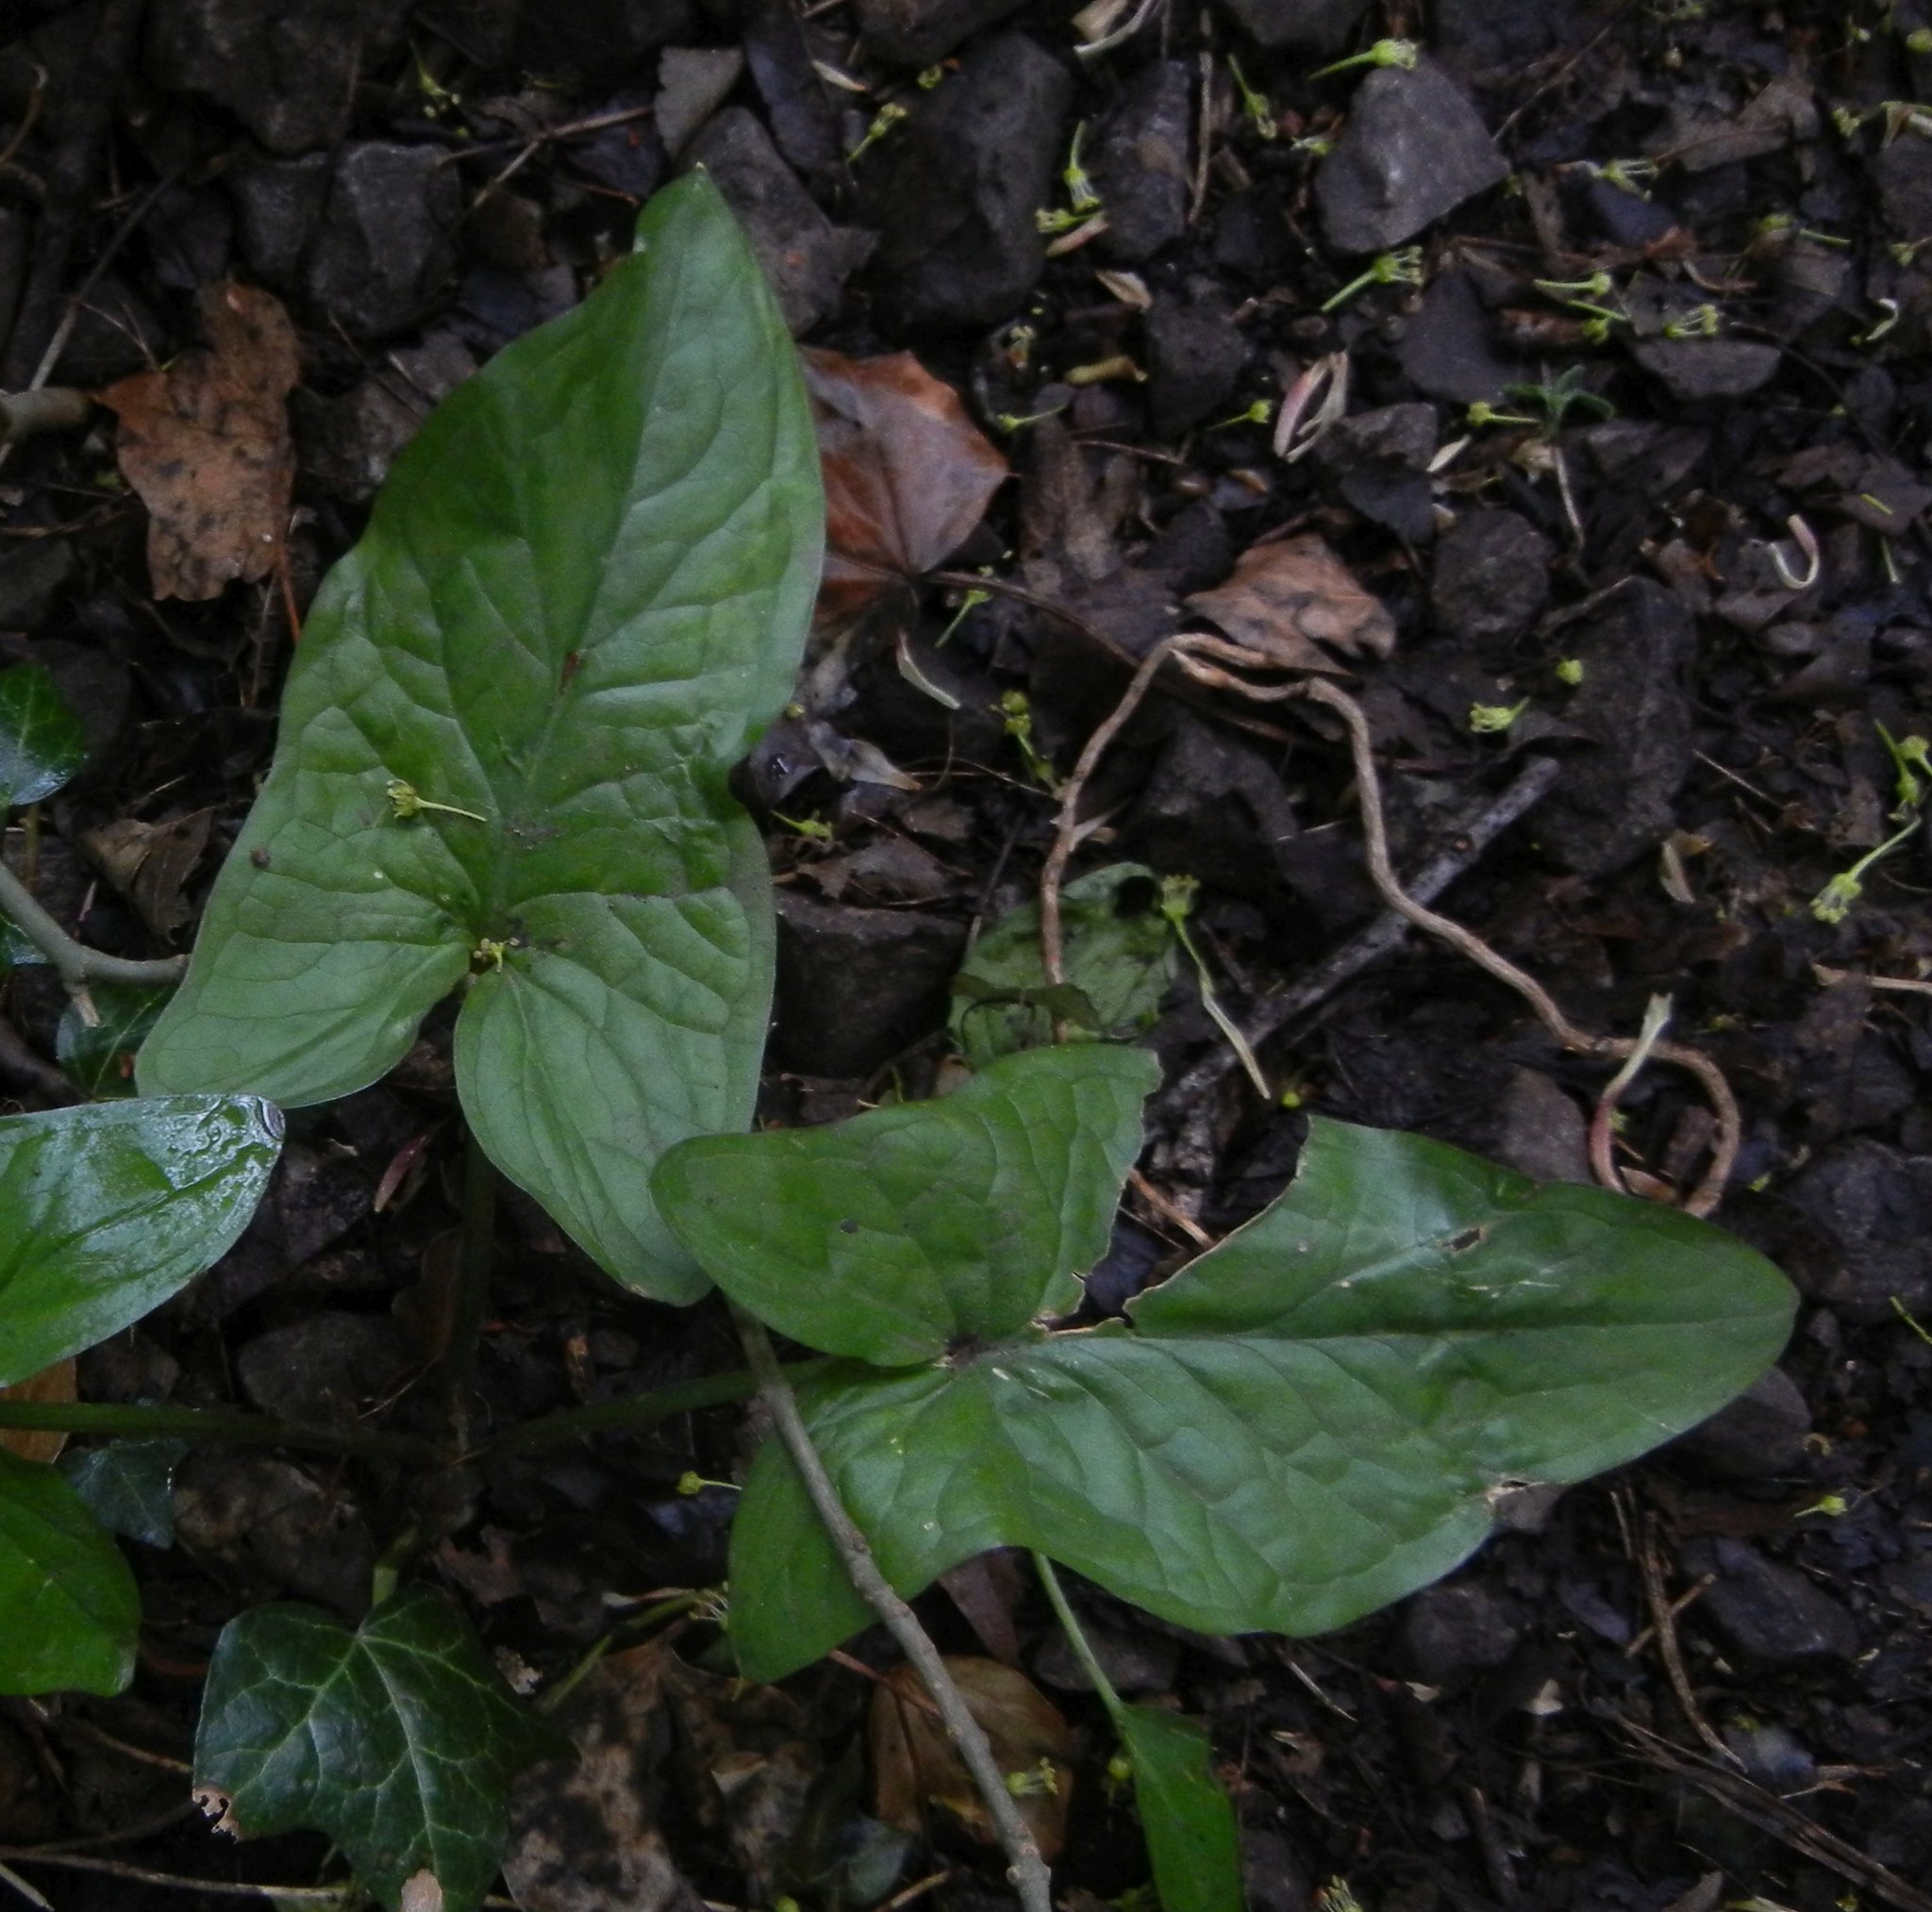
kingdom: Plantae
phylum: Tracheophyta
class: Liliopsida
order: Alismatales
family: Araceae
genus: Arum
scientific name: Arum maculatum
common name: Lords-and-ladies
